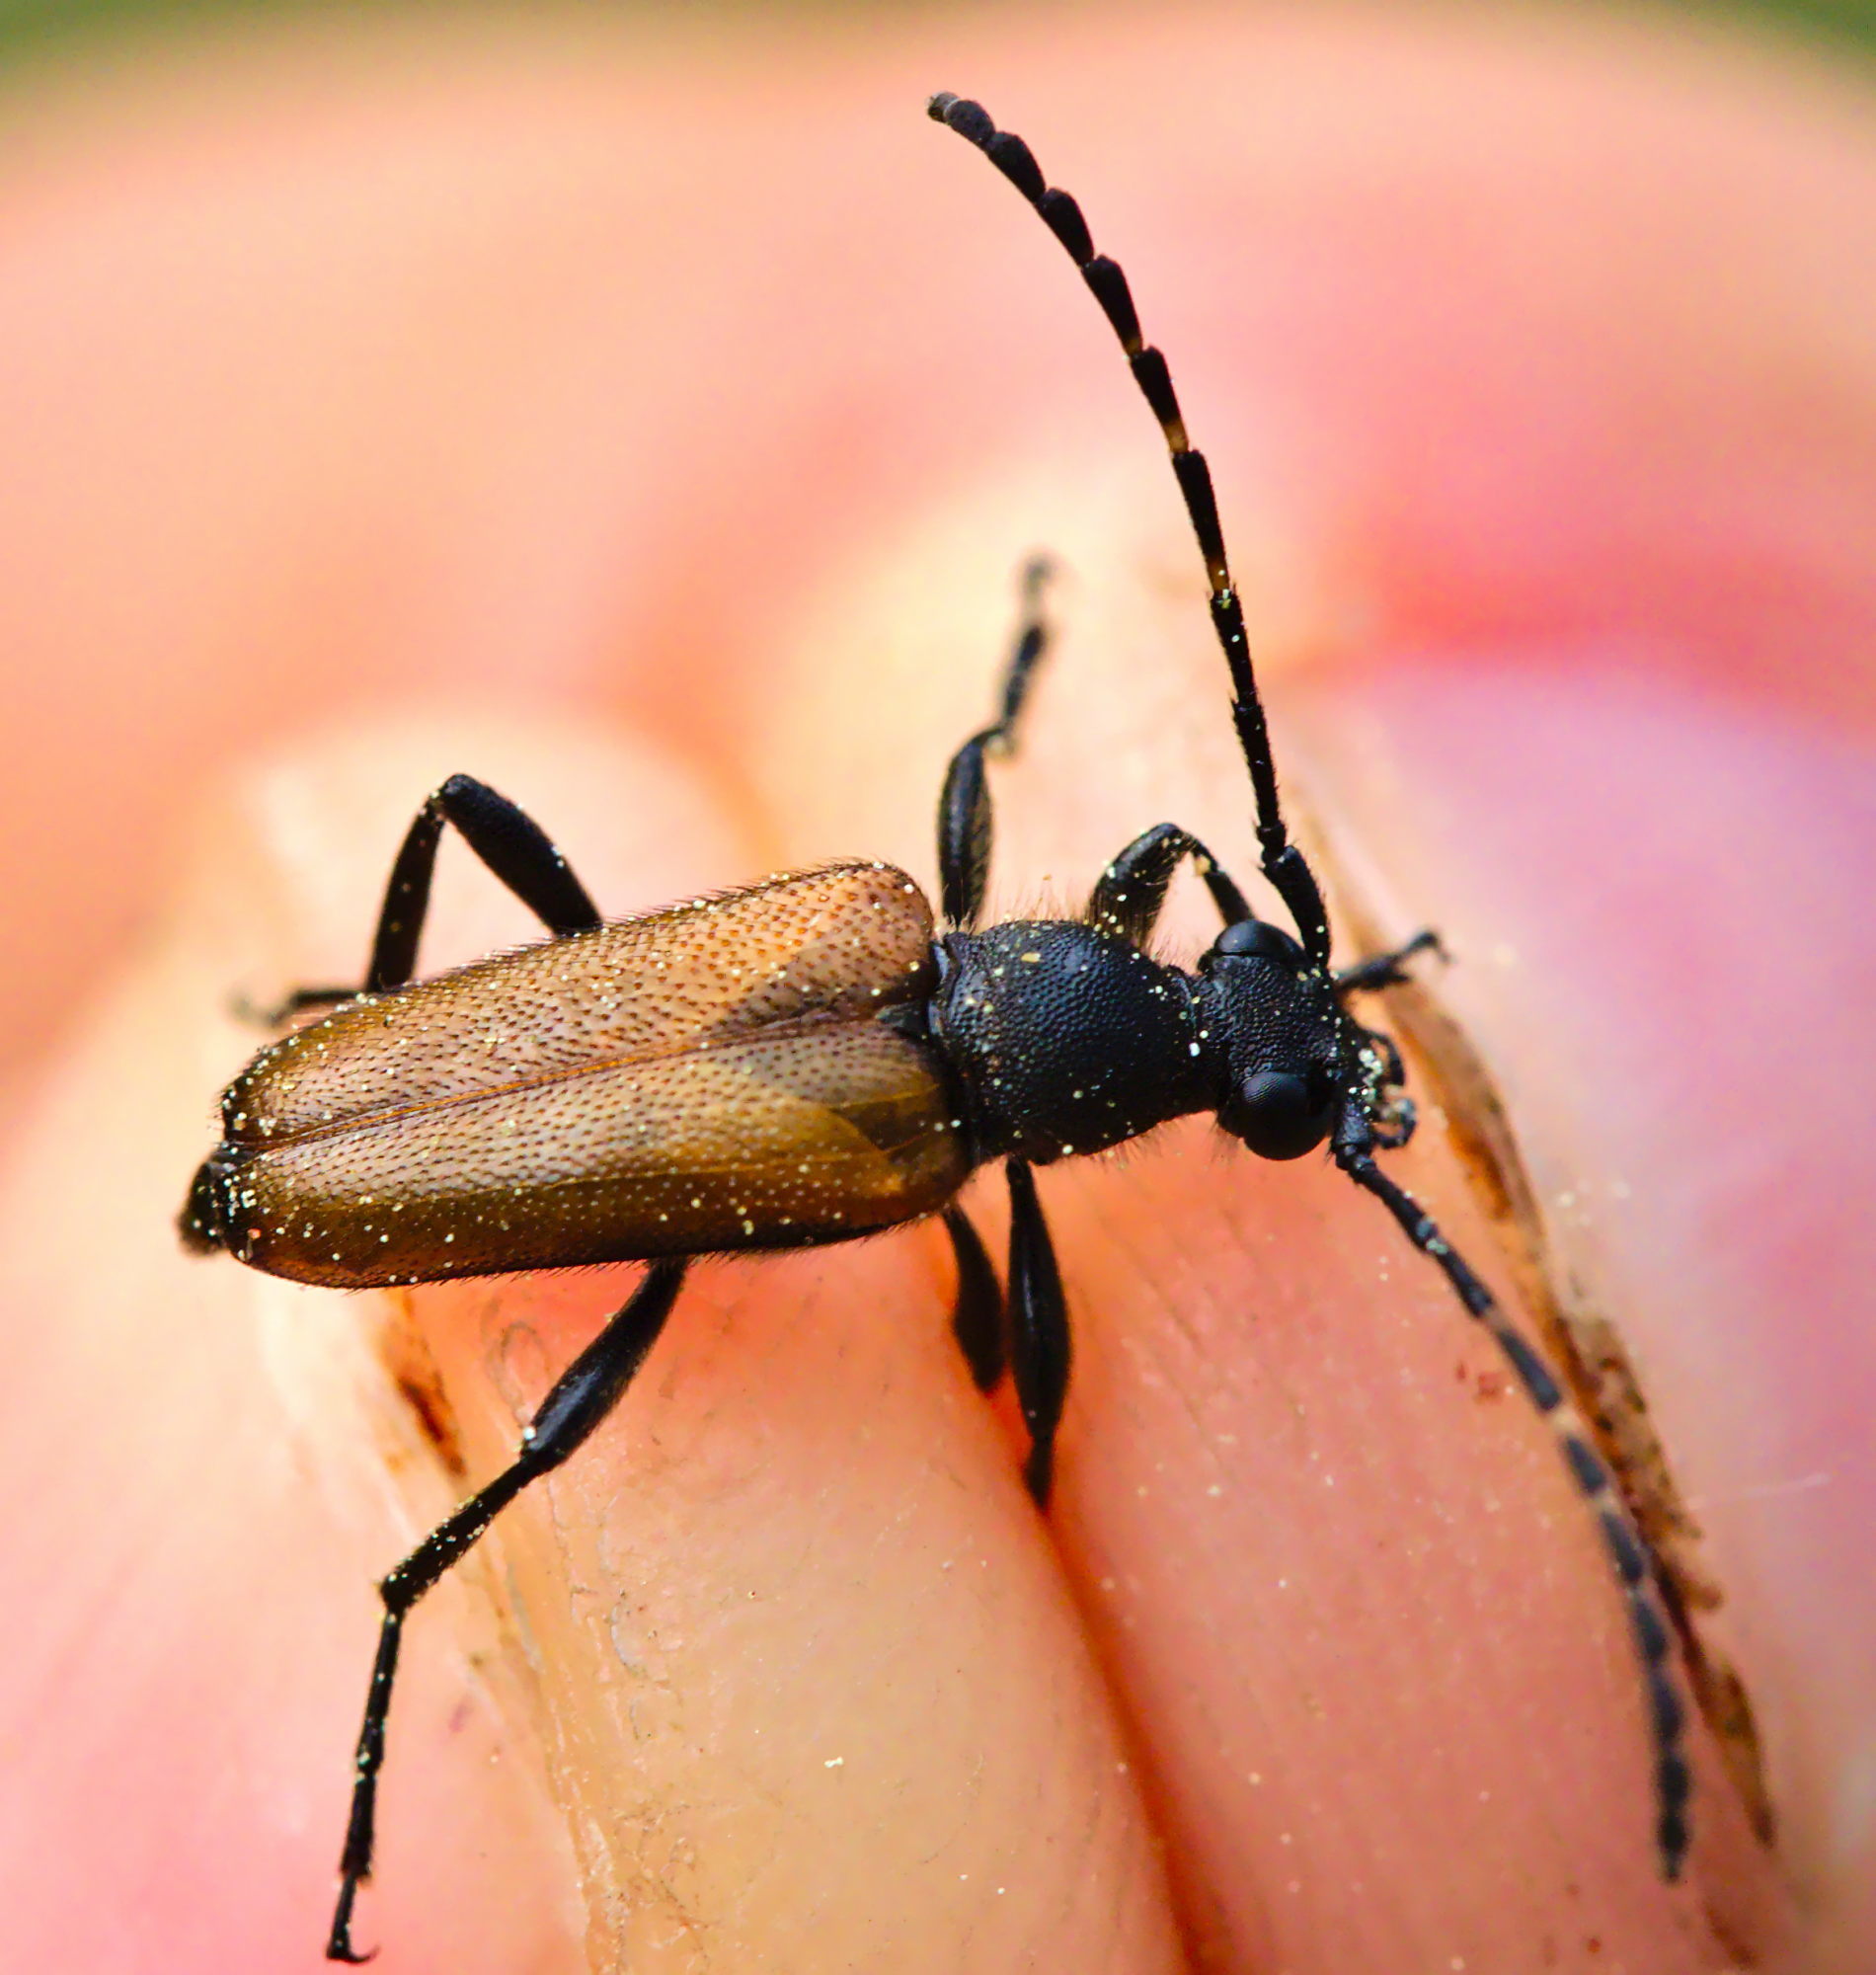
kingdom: Animalia
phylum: Arthropoda
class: Insecta
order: Coleoptera
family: Cerambycidae
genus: Paracorymbia
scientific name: Paracorymbia maculicornis
